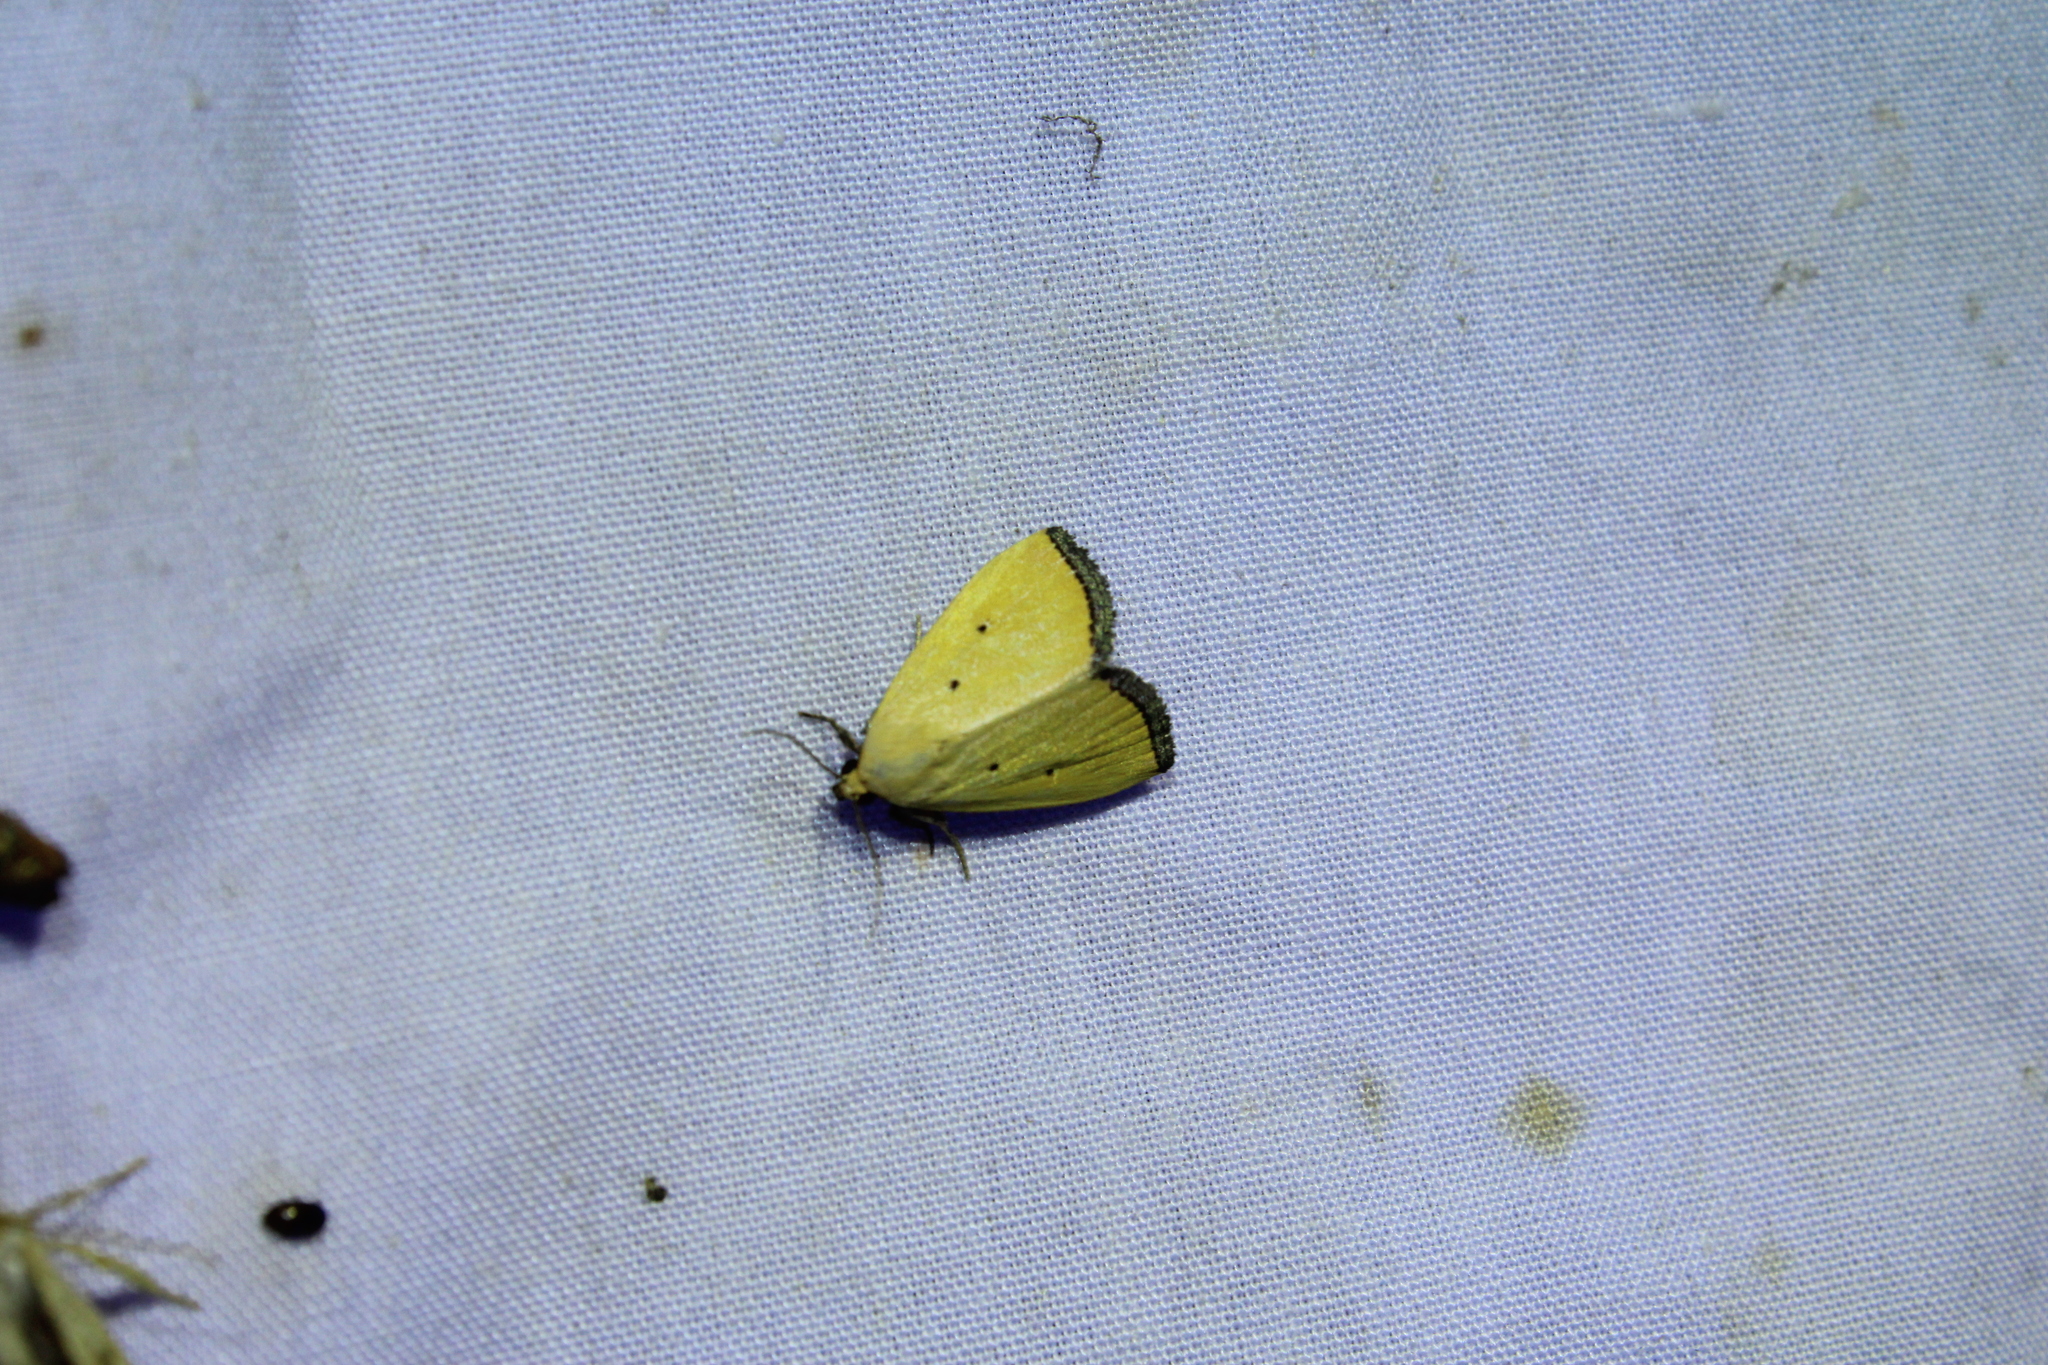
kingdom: Animalia
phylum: Arthropoda
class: Insecta
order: Lepidoptera
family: Noctuidae
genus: Marimatha
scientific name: Marimatha nigrofimbria
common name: Black-bordered lemon moth
